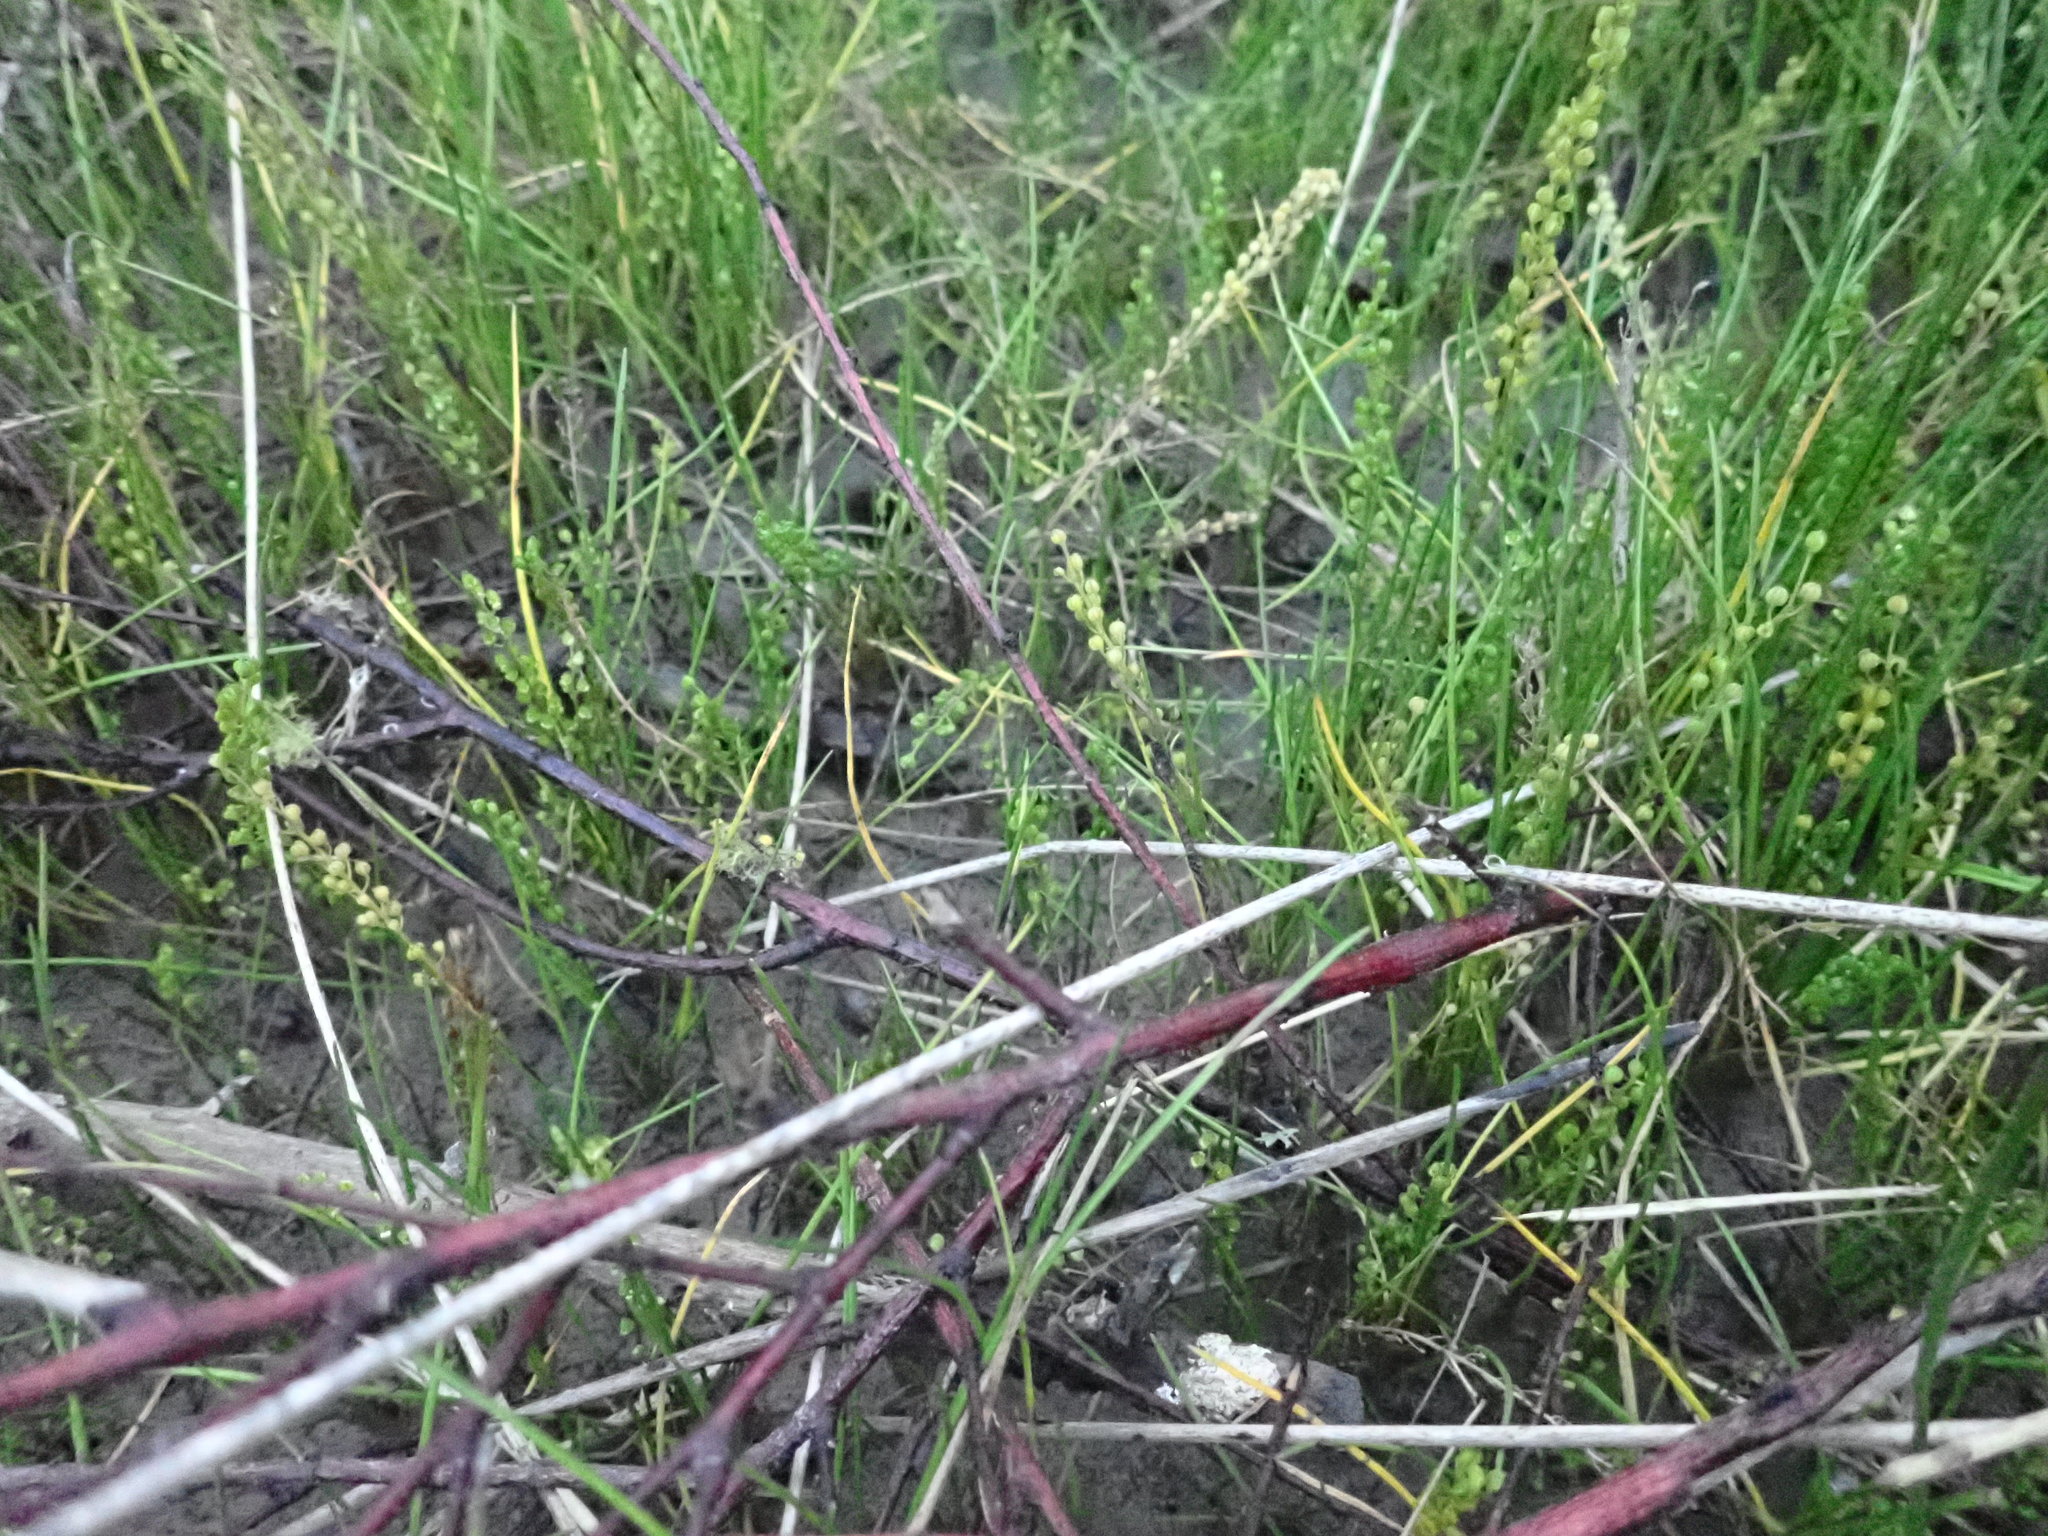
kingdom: Plantae
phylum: Tracheophyta
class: Liliopsida
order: Alismatales
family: Juncaginaceae
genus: Triglochin
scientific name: Triglochin striata
